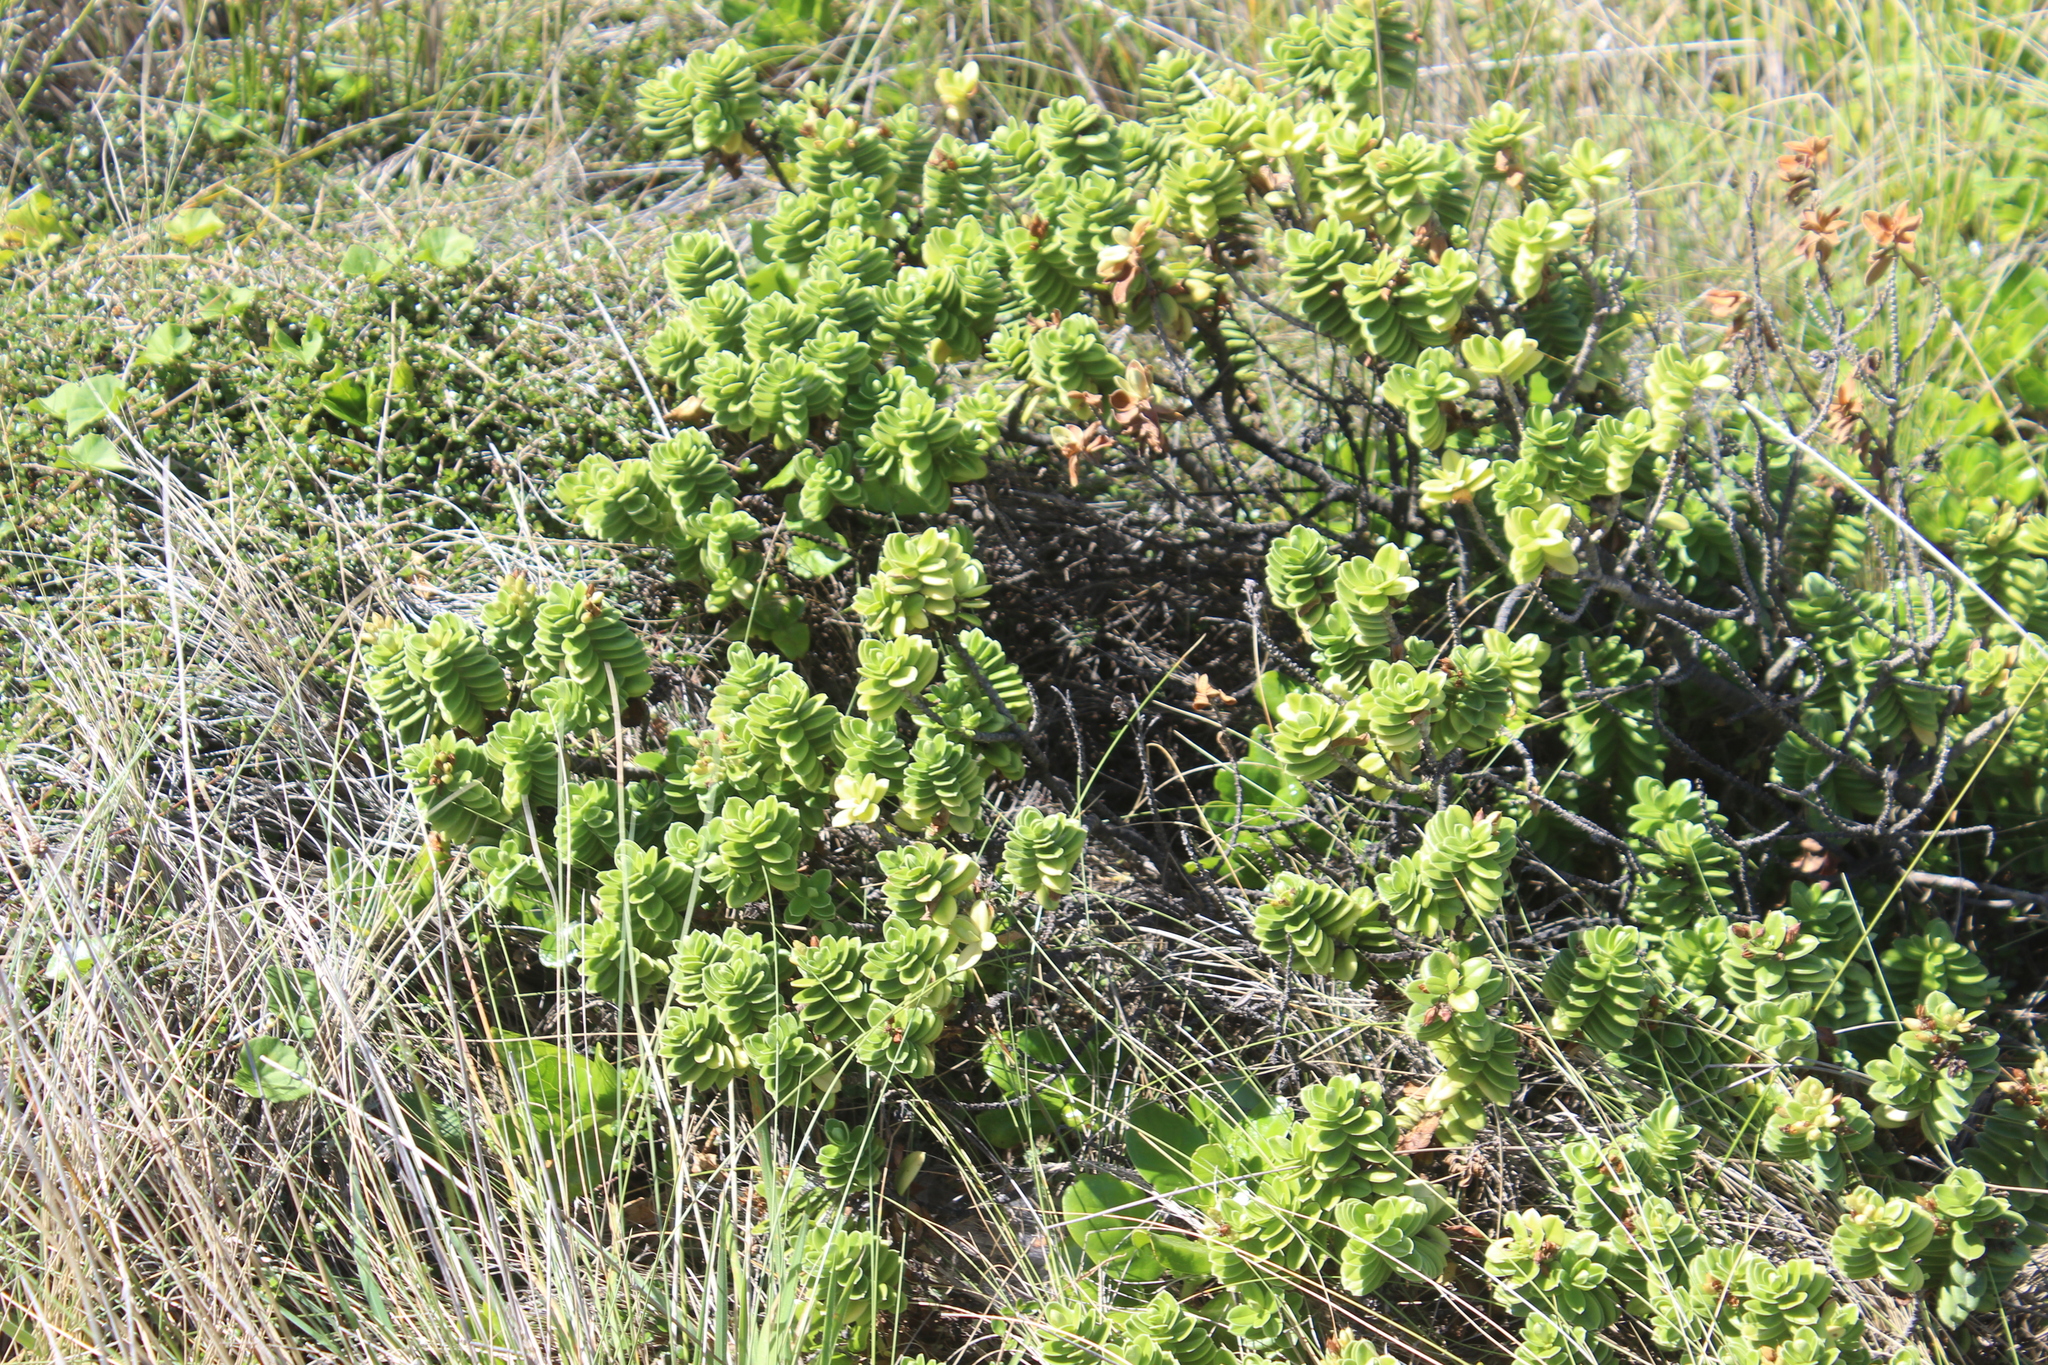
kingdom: Plantae
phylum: Tracheophyta
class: Magnoliopsida
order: Lamiales
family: Plantaginaceae
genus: Veronica
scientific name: Veronica elliptica
